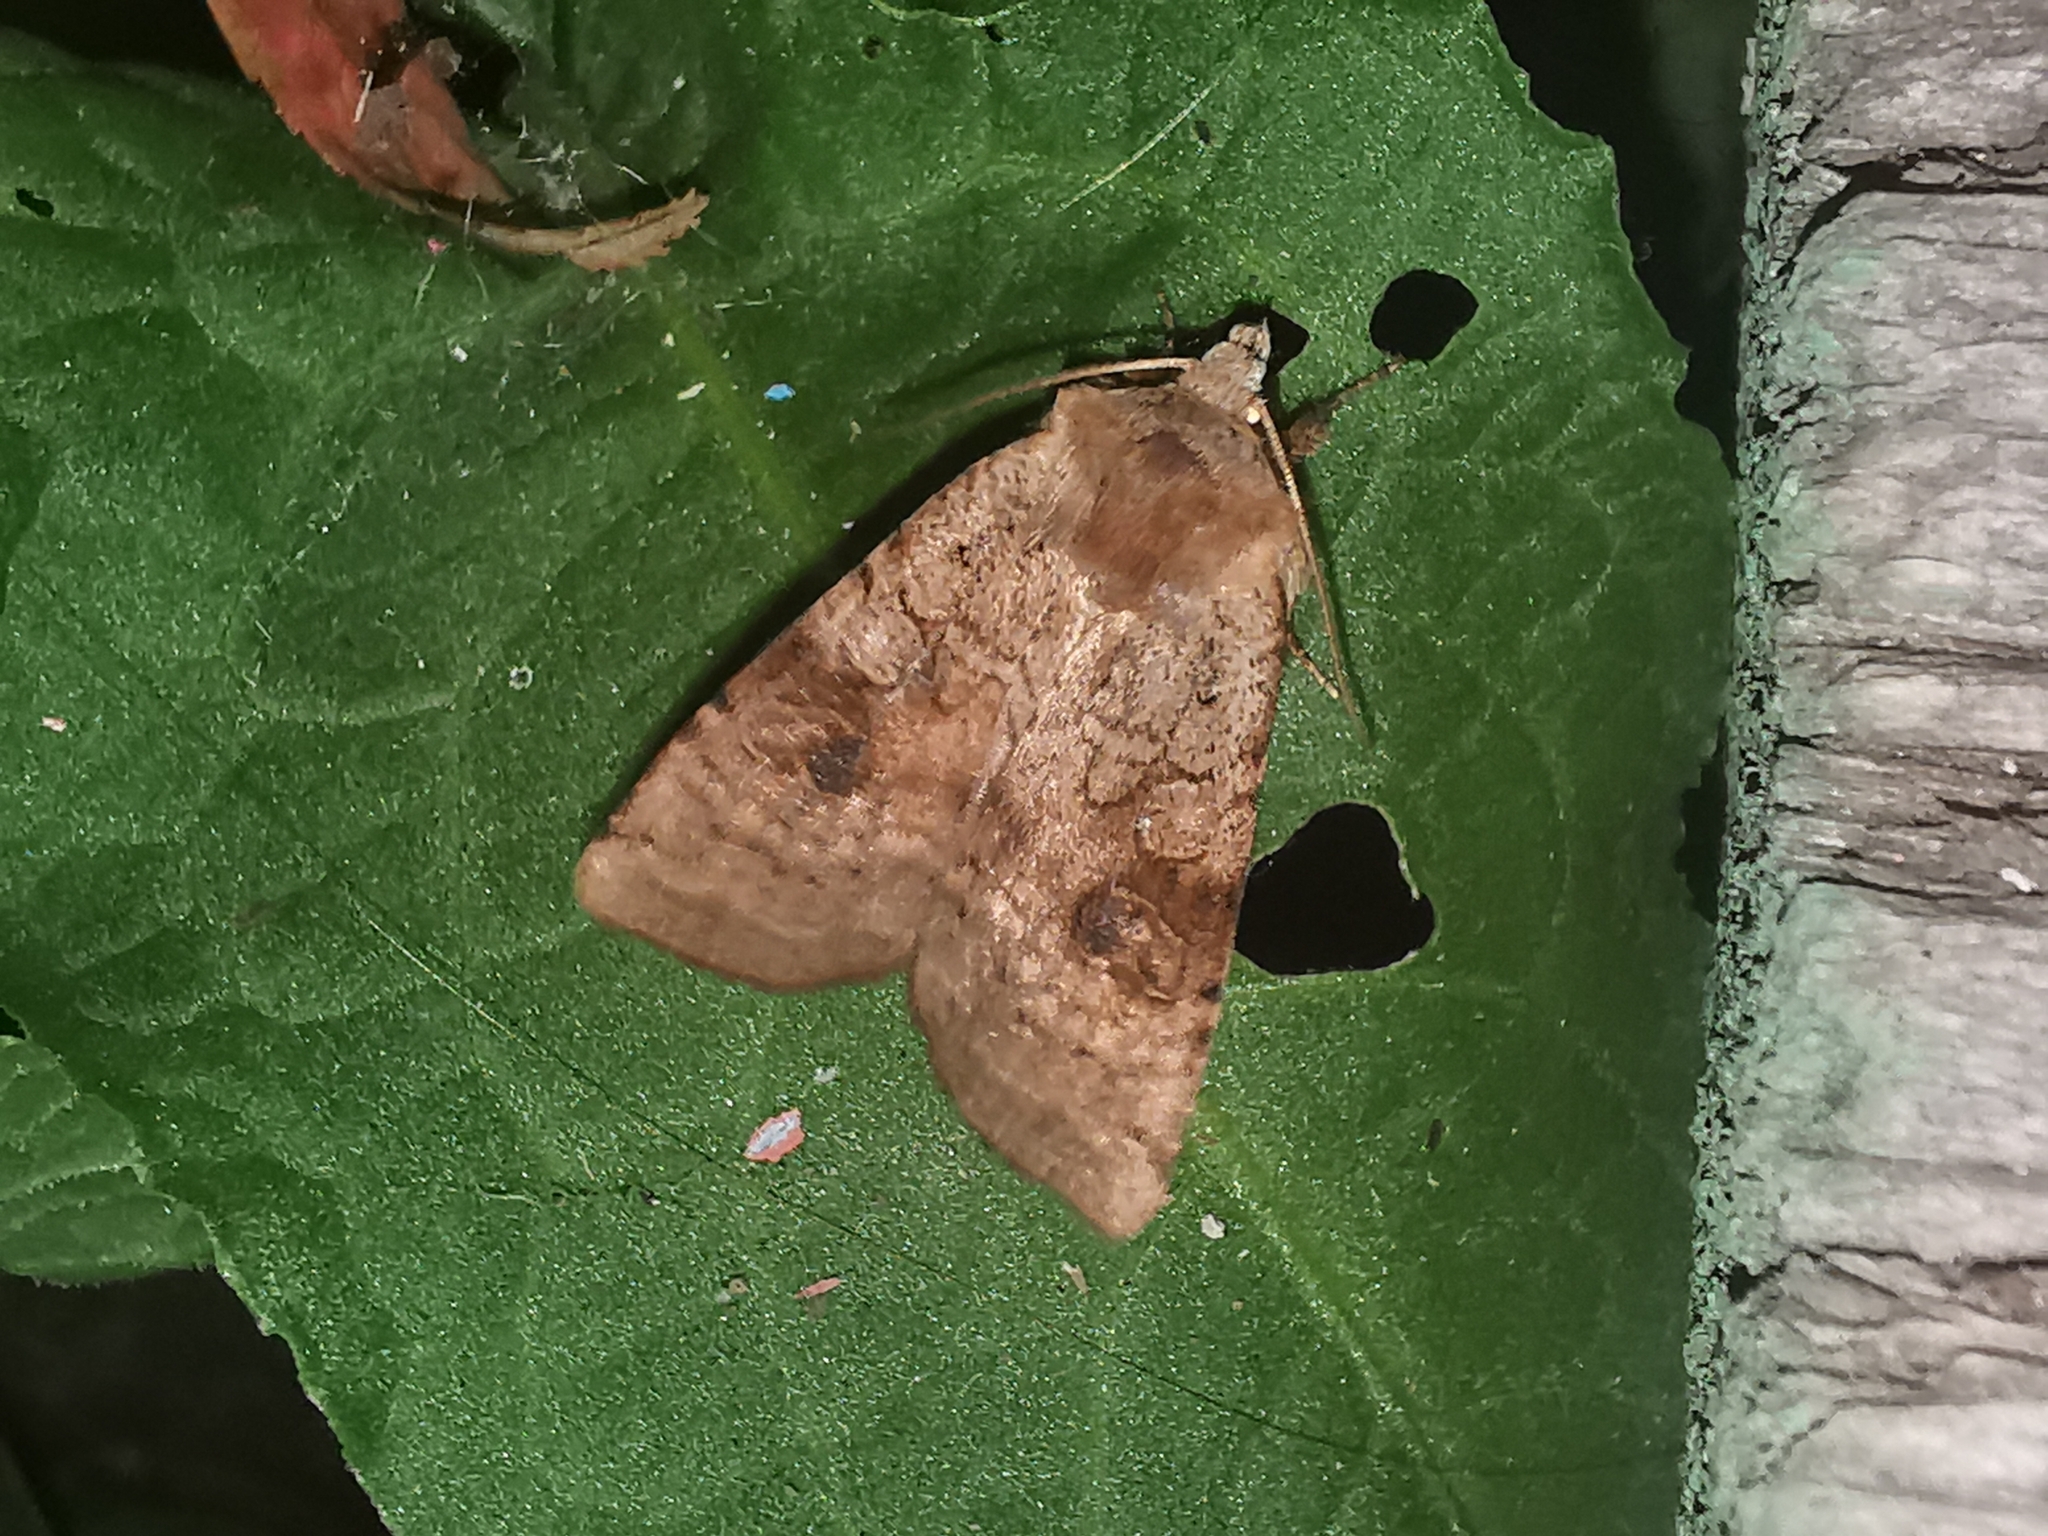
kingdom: Animalia
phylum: Arthropoda
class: Insecta
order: Lepidoptera
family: Noctuidae
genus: Xestia
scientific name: Xestia baja
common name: Dotted clay
